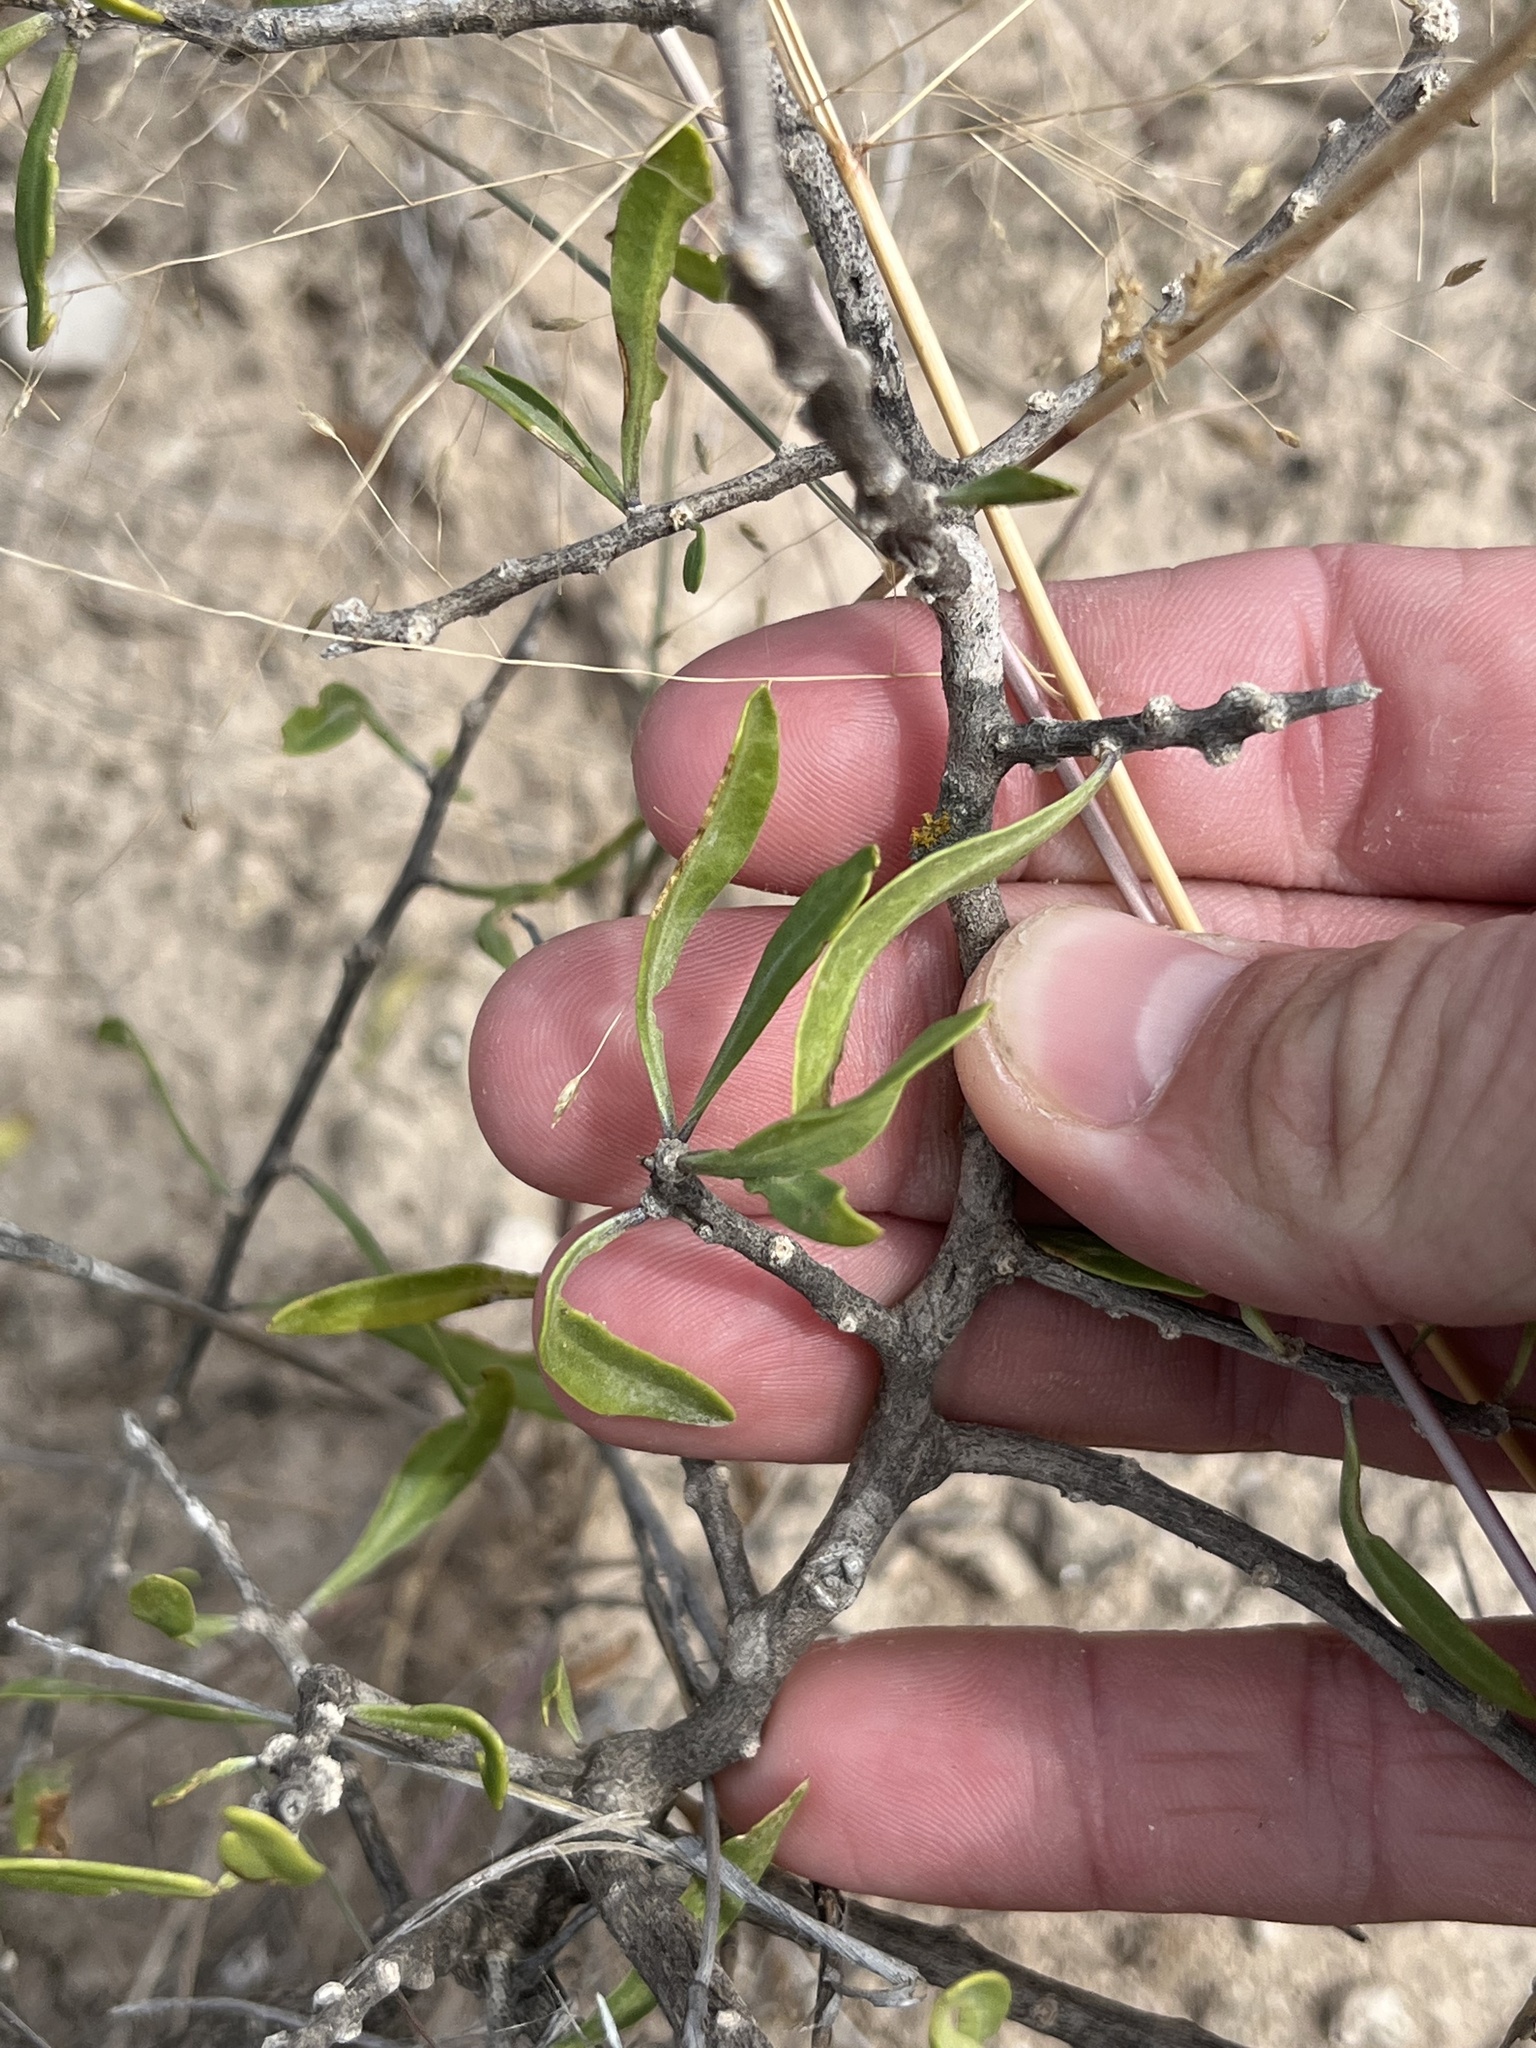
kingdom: Plantae
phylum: Tracheophyta
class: Magnoliopsida
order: Solanales
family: Solanaceae
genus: Lycium
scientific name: Lycium berlandieri
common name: Berlandier wolfberry
